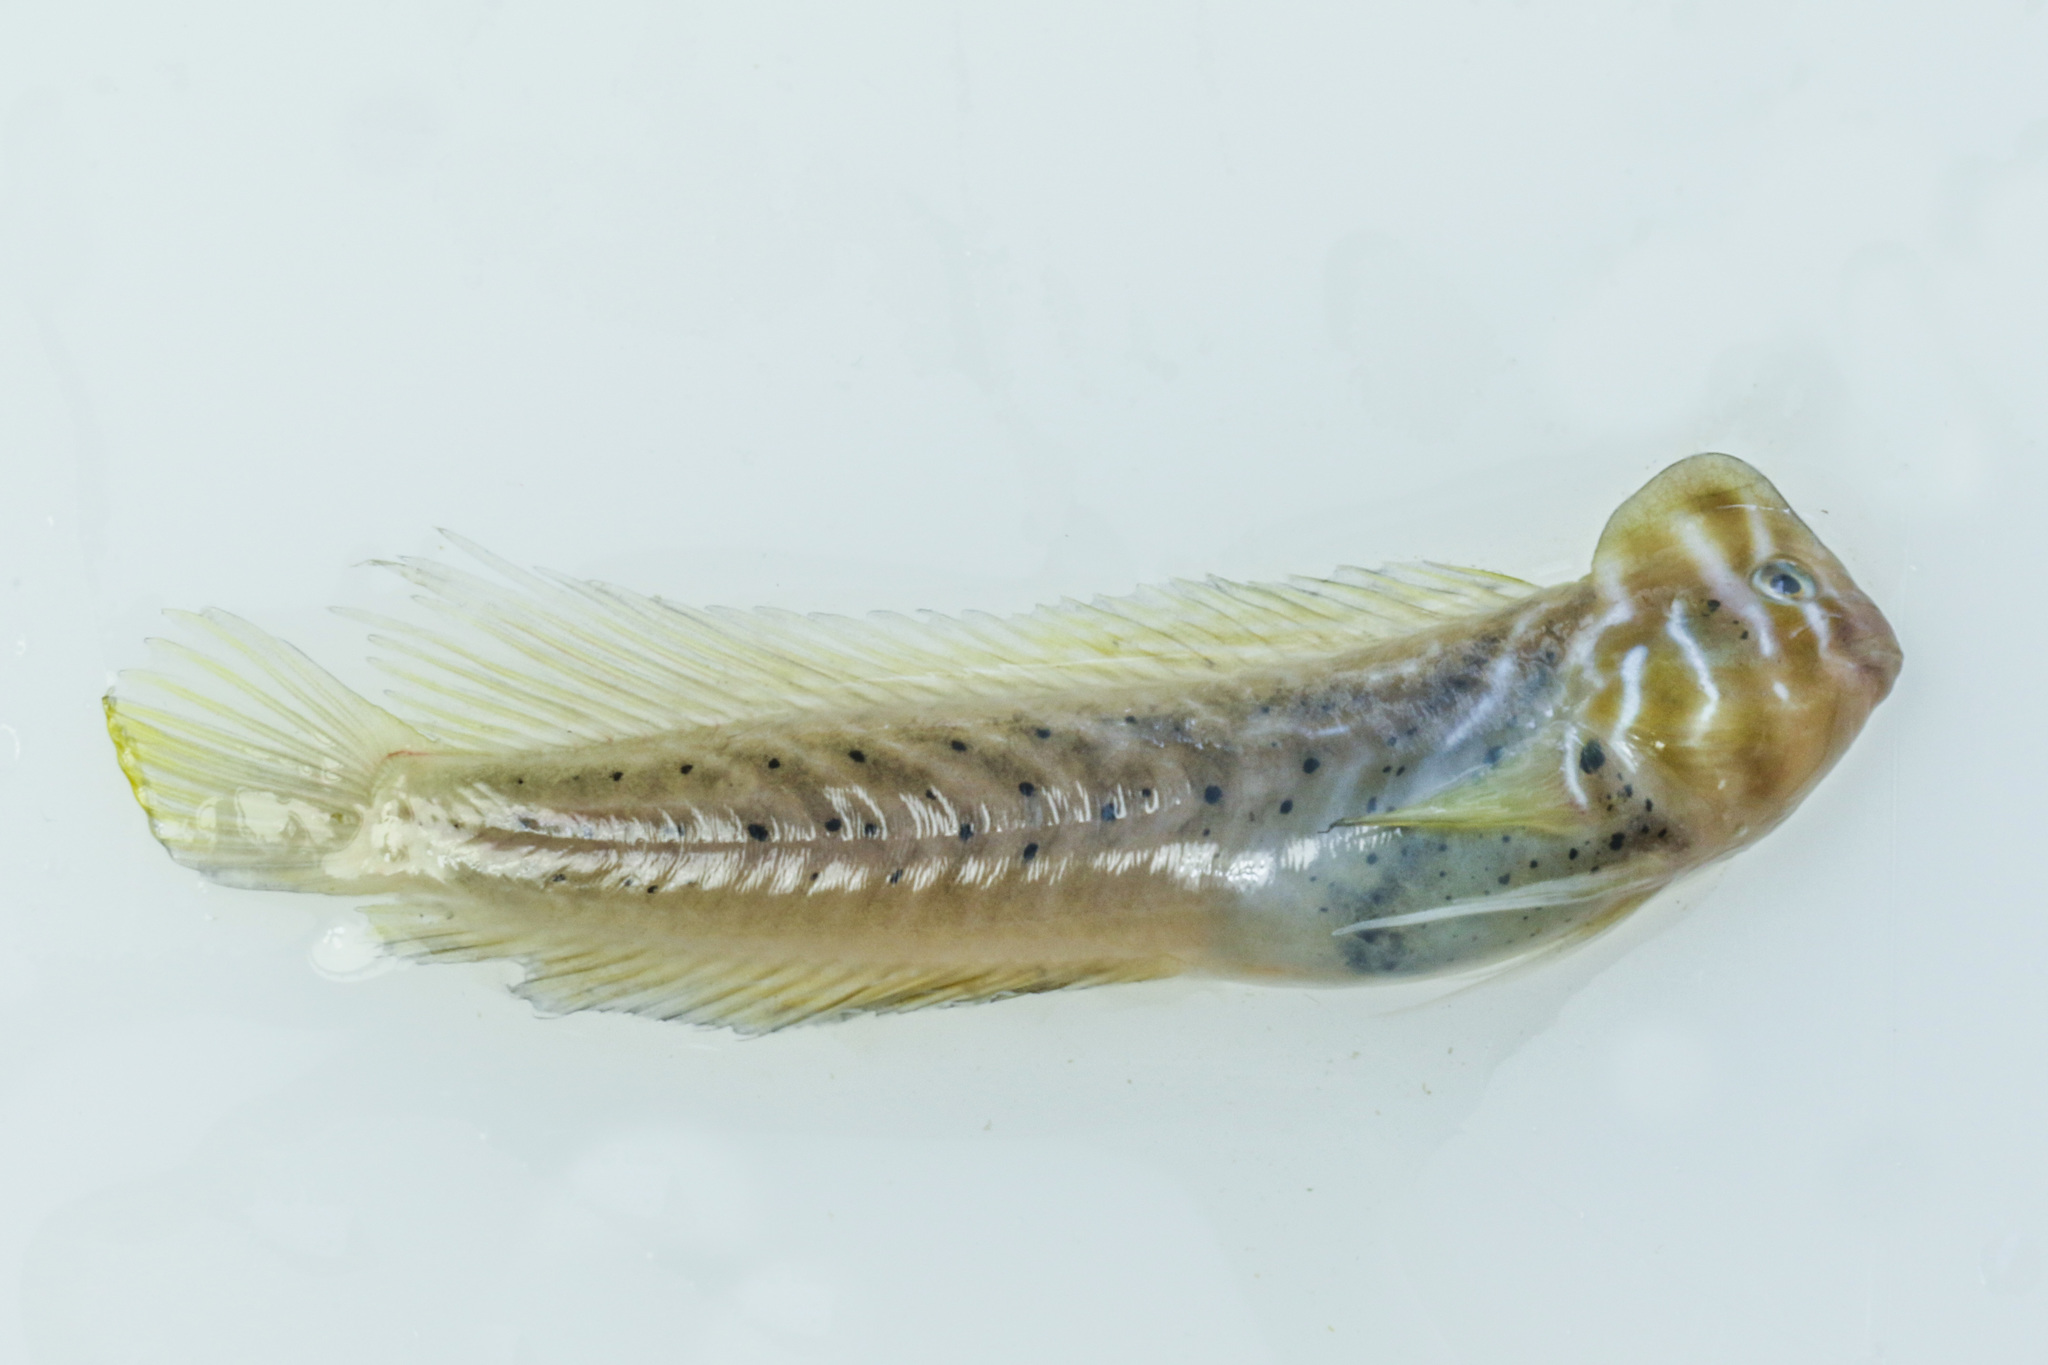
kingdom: Animalia
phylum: Chordata
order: Perciformes
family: Blenniidae
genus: Omobranchus
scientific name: Omobranchus anolius
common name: Oyster blenny
